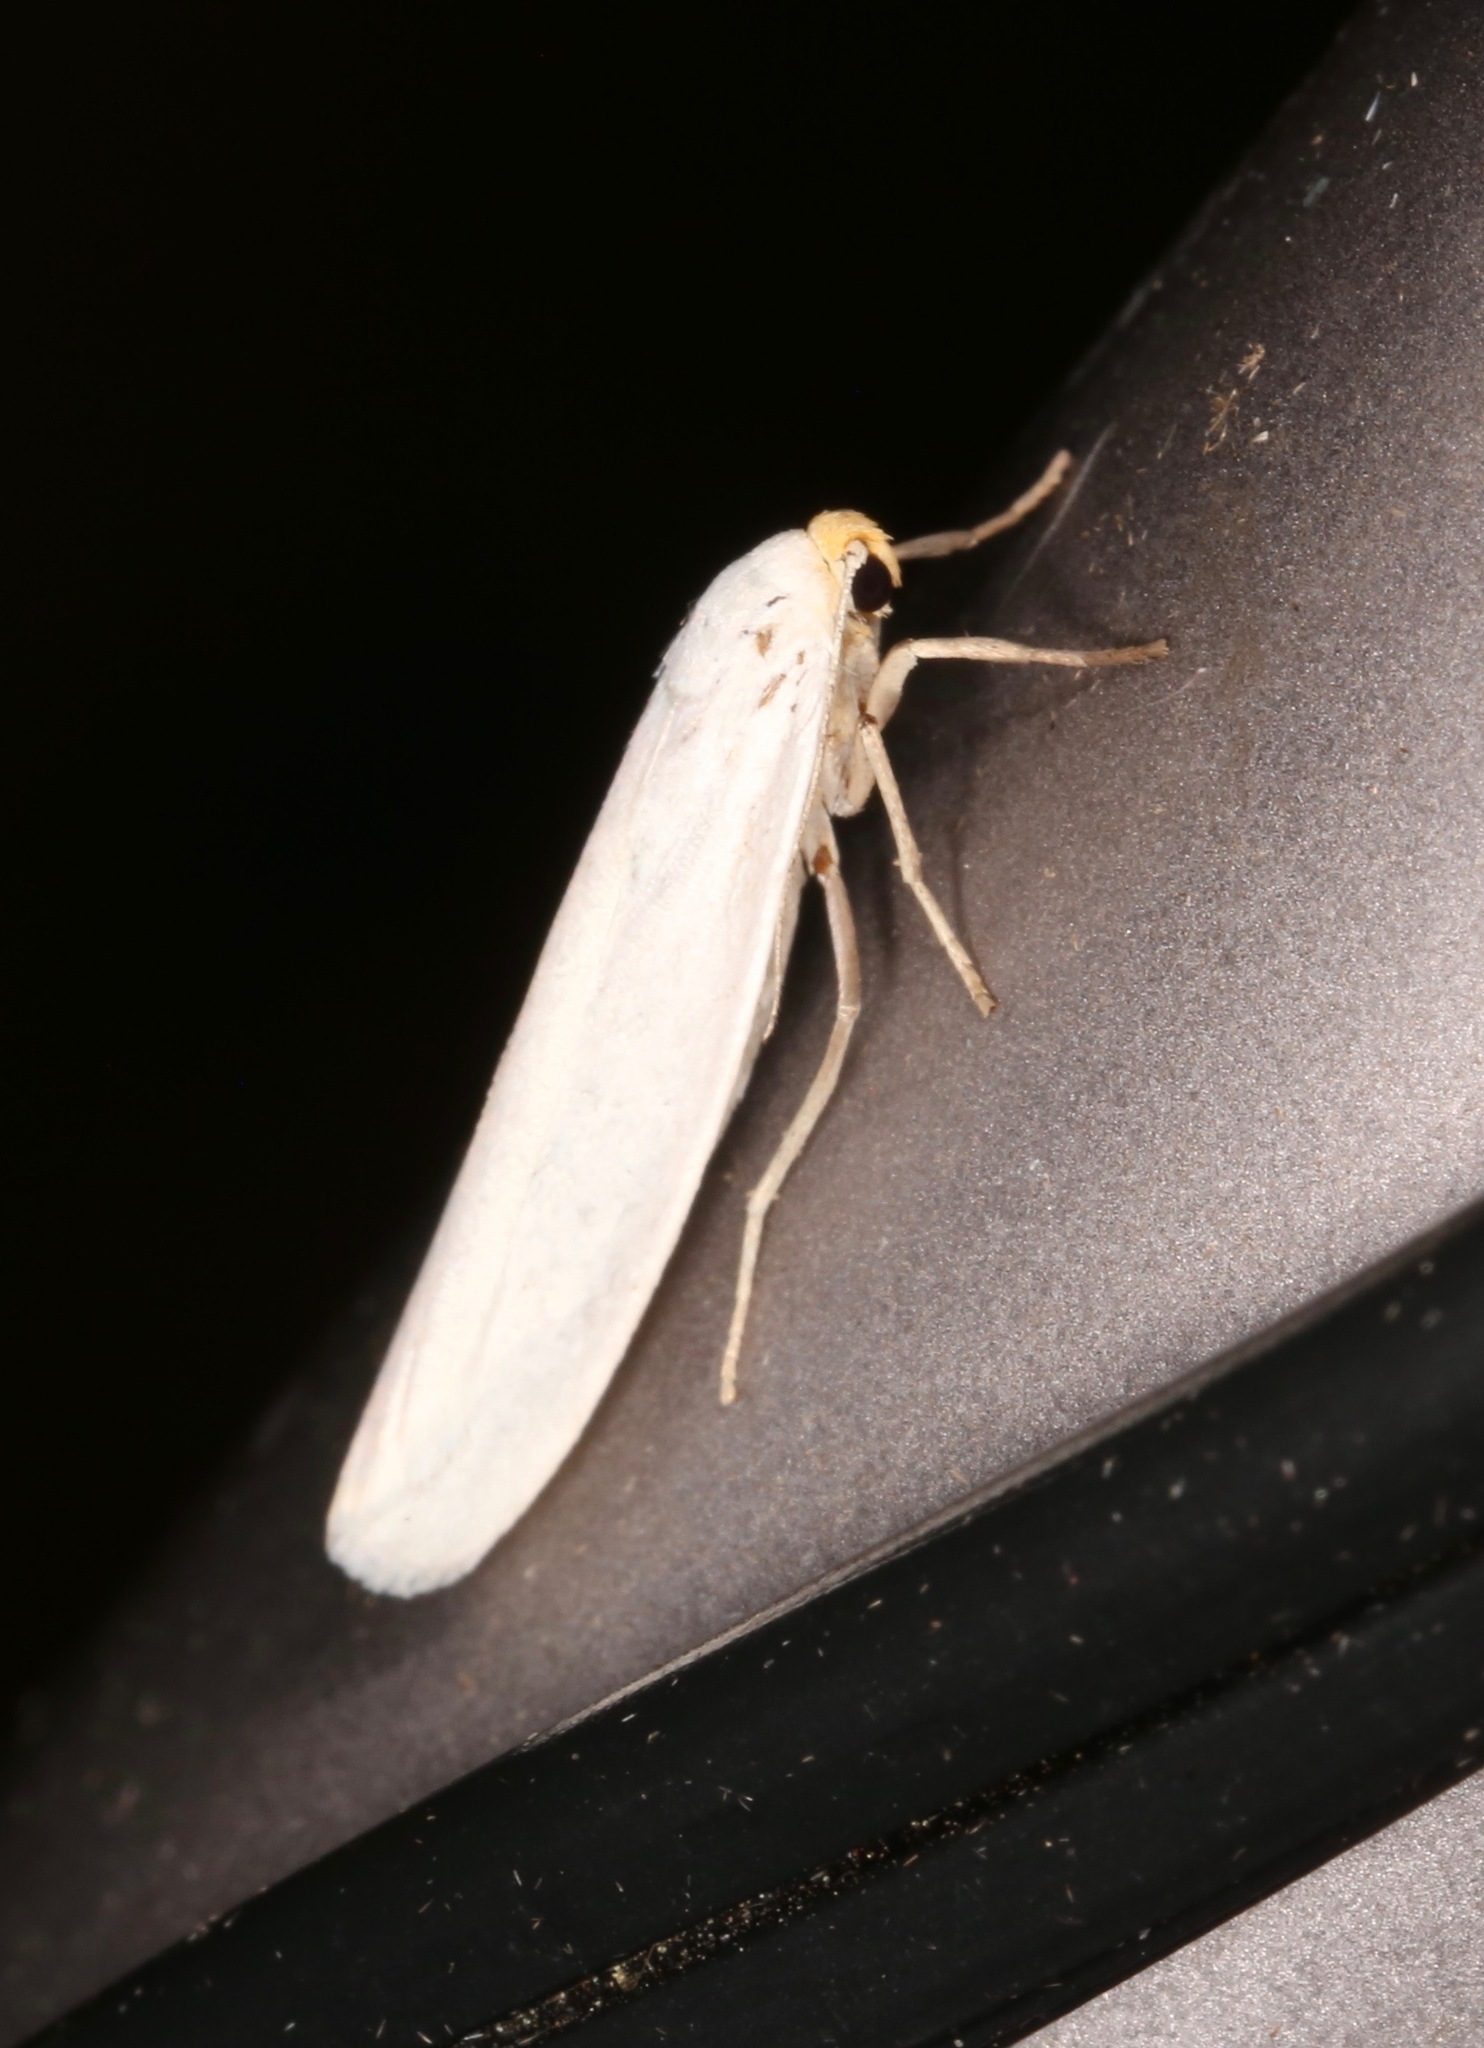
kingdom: Animalia
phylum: Arthropoda
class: Insecta
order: Lepidoptera
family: Erebidae
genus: Crambidia
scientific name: Crambidia cephalica
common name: Yellow-headed lichen moth
